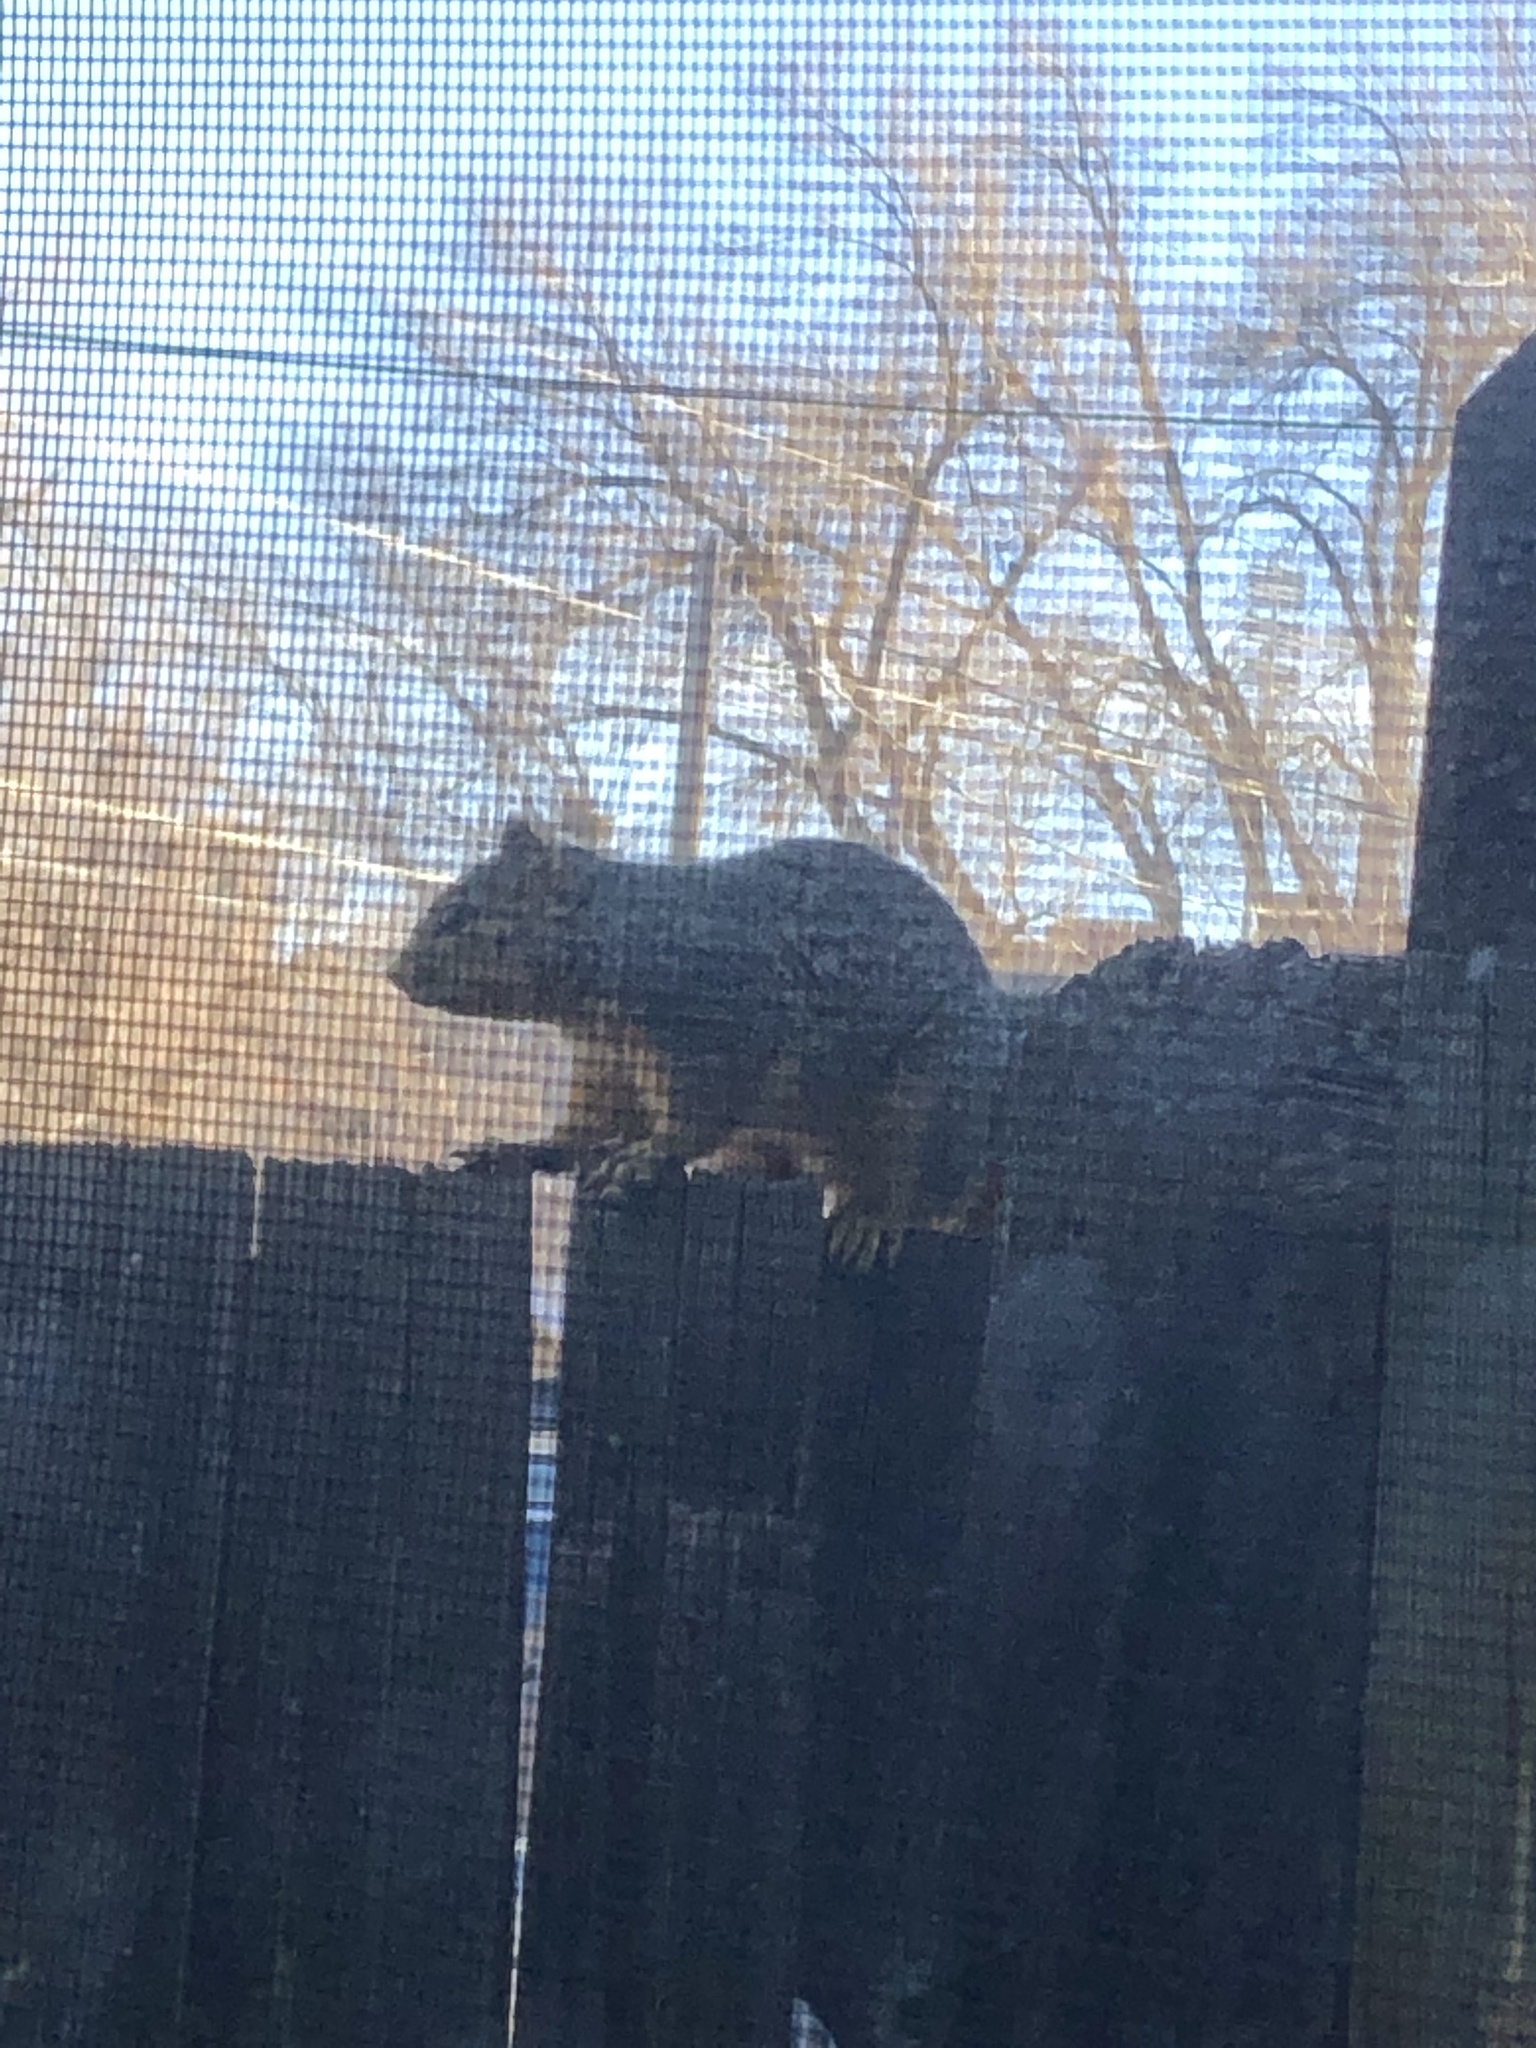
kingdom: Animalia
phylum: Chordata
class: Mammalia
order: Rodentia
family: Sciuridae
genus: Sciurus
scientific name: Sciurus niger
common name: Fox squirrel
